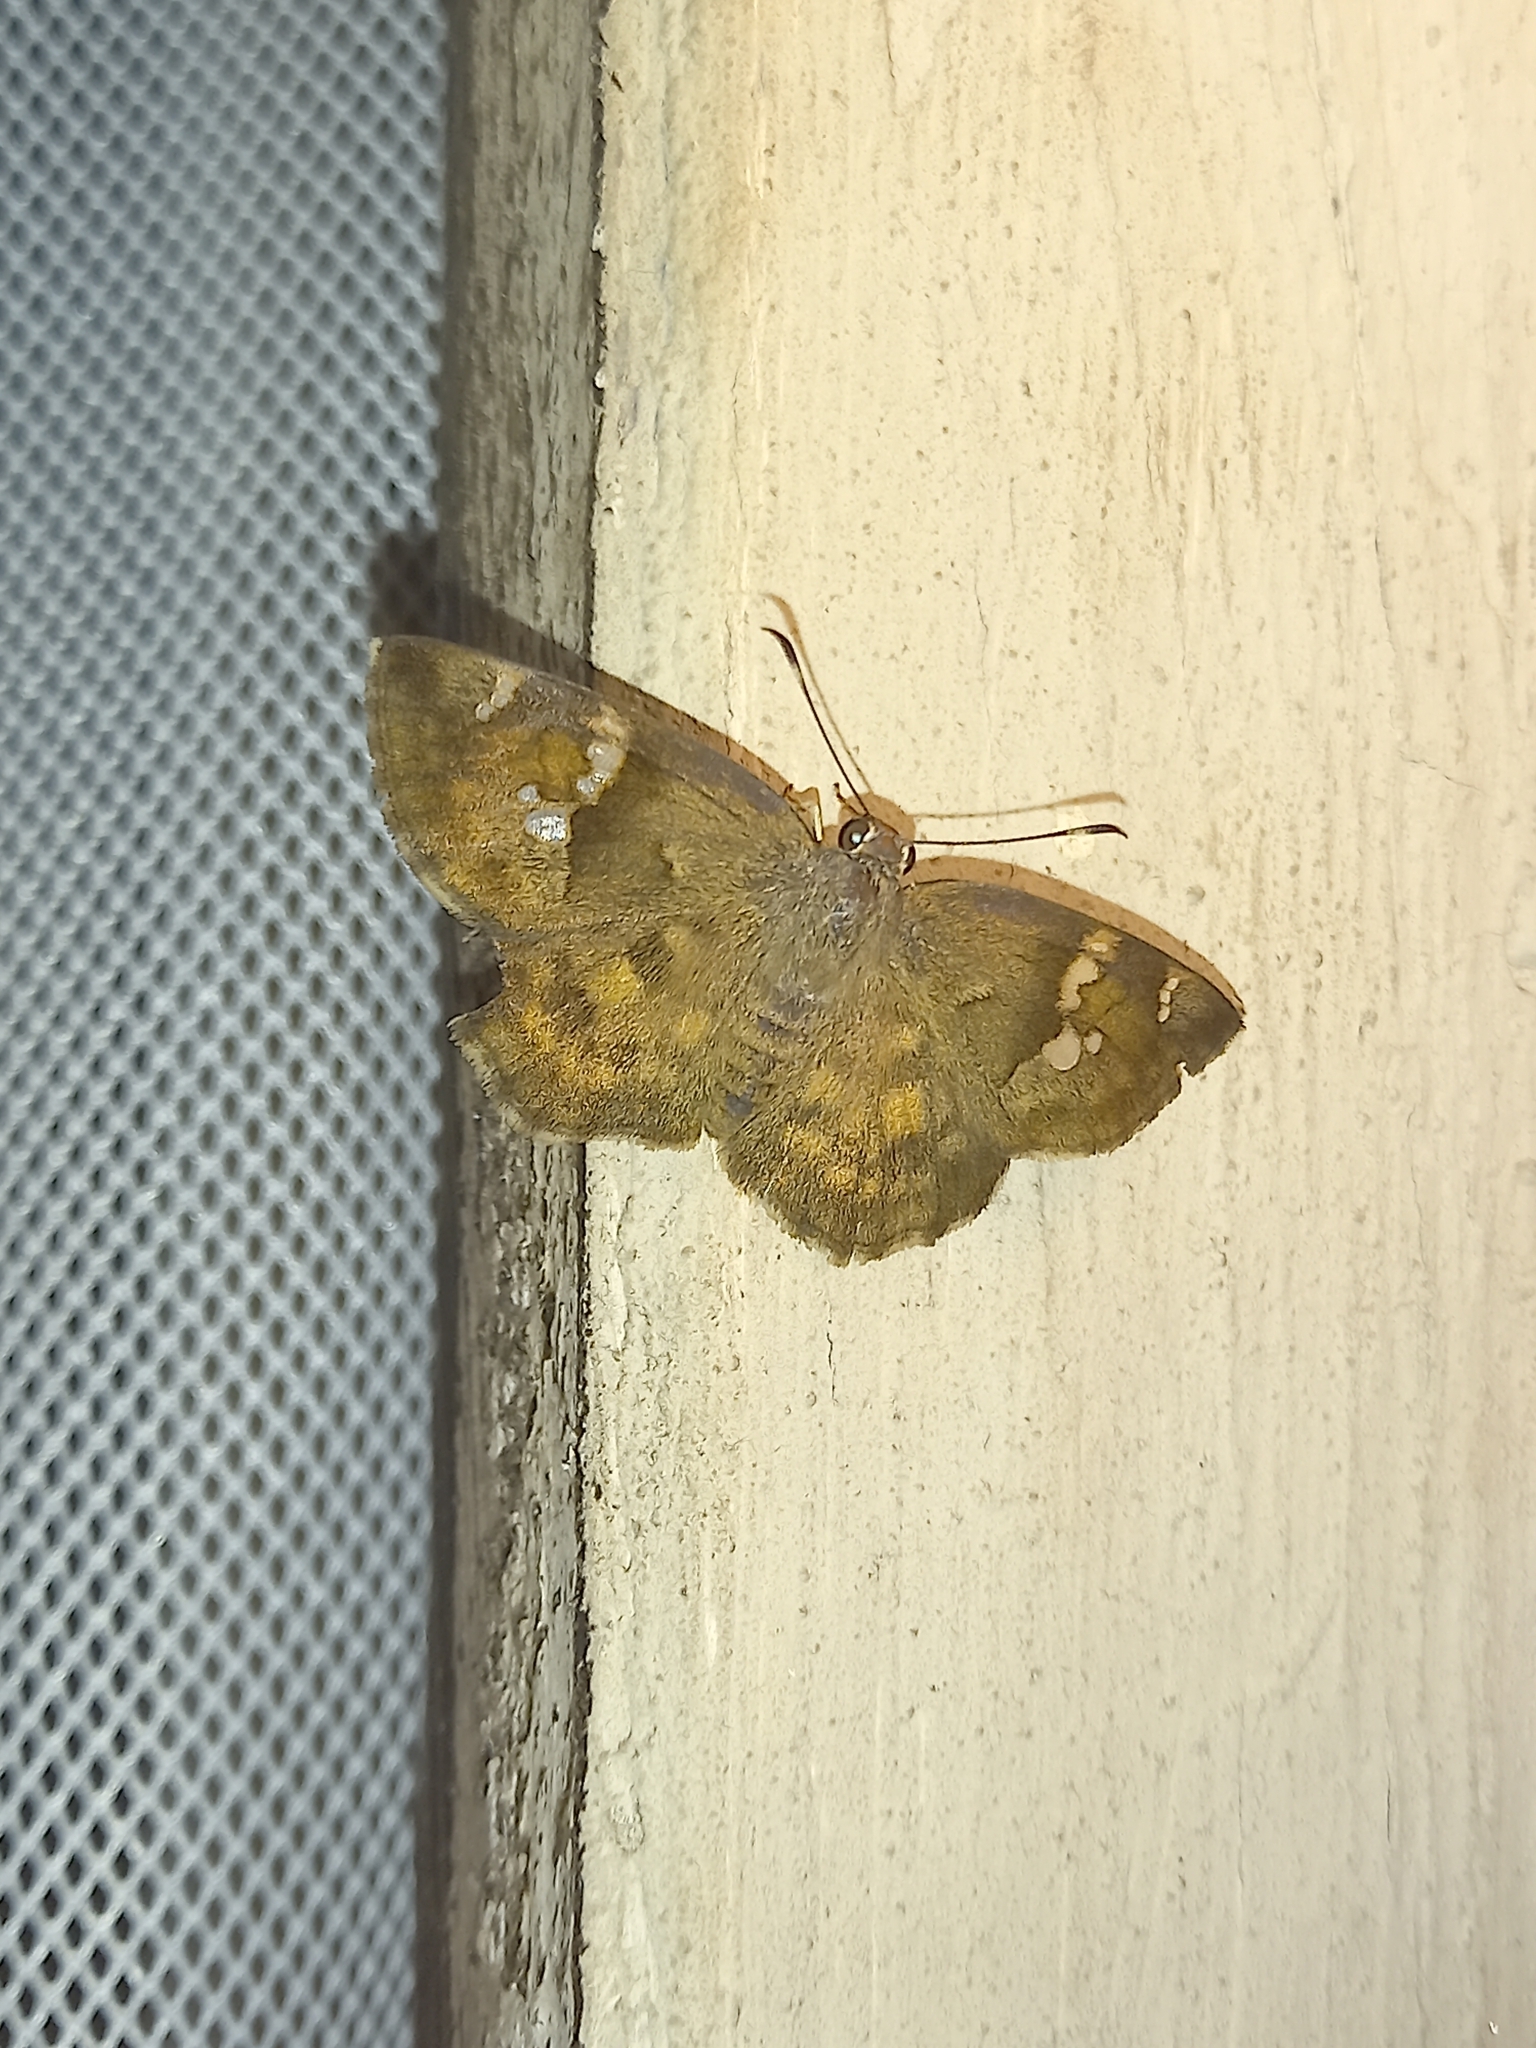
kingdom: Animalia
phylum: Arthropoda
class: Insecta
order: Lepidoptera
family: Hesperiidae
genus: Sarangesa
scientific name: Sarangesa phidyle
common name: Small elfin
